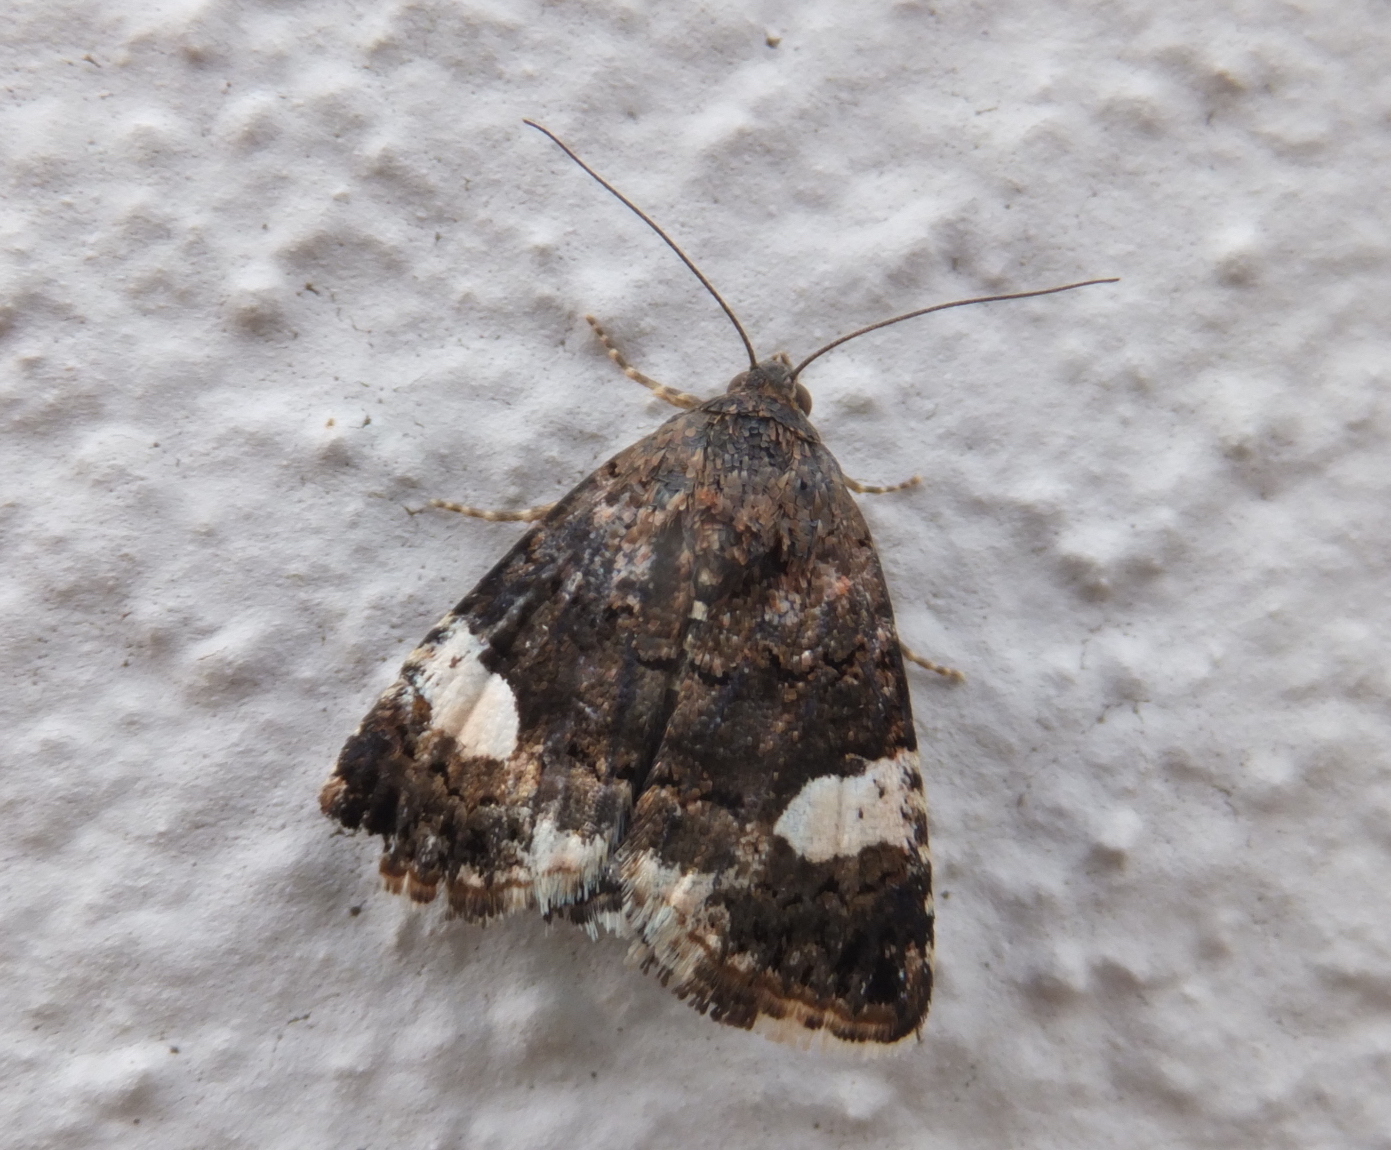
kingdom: Animalia
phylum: Arthropoda
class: Insecta
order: Lepidoptera
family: Erebidae
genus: Tyta
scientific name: Tyta luctuosa
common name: Four-spotted
